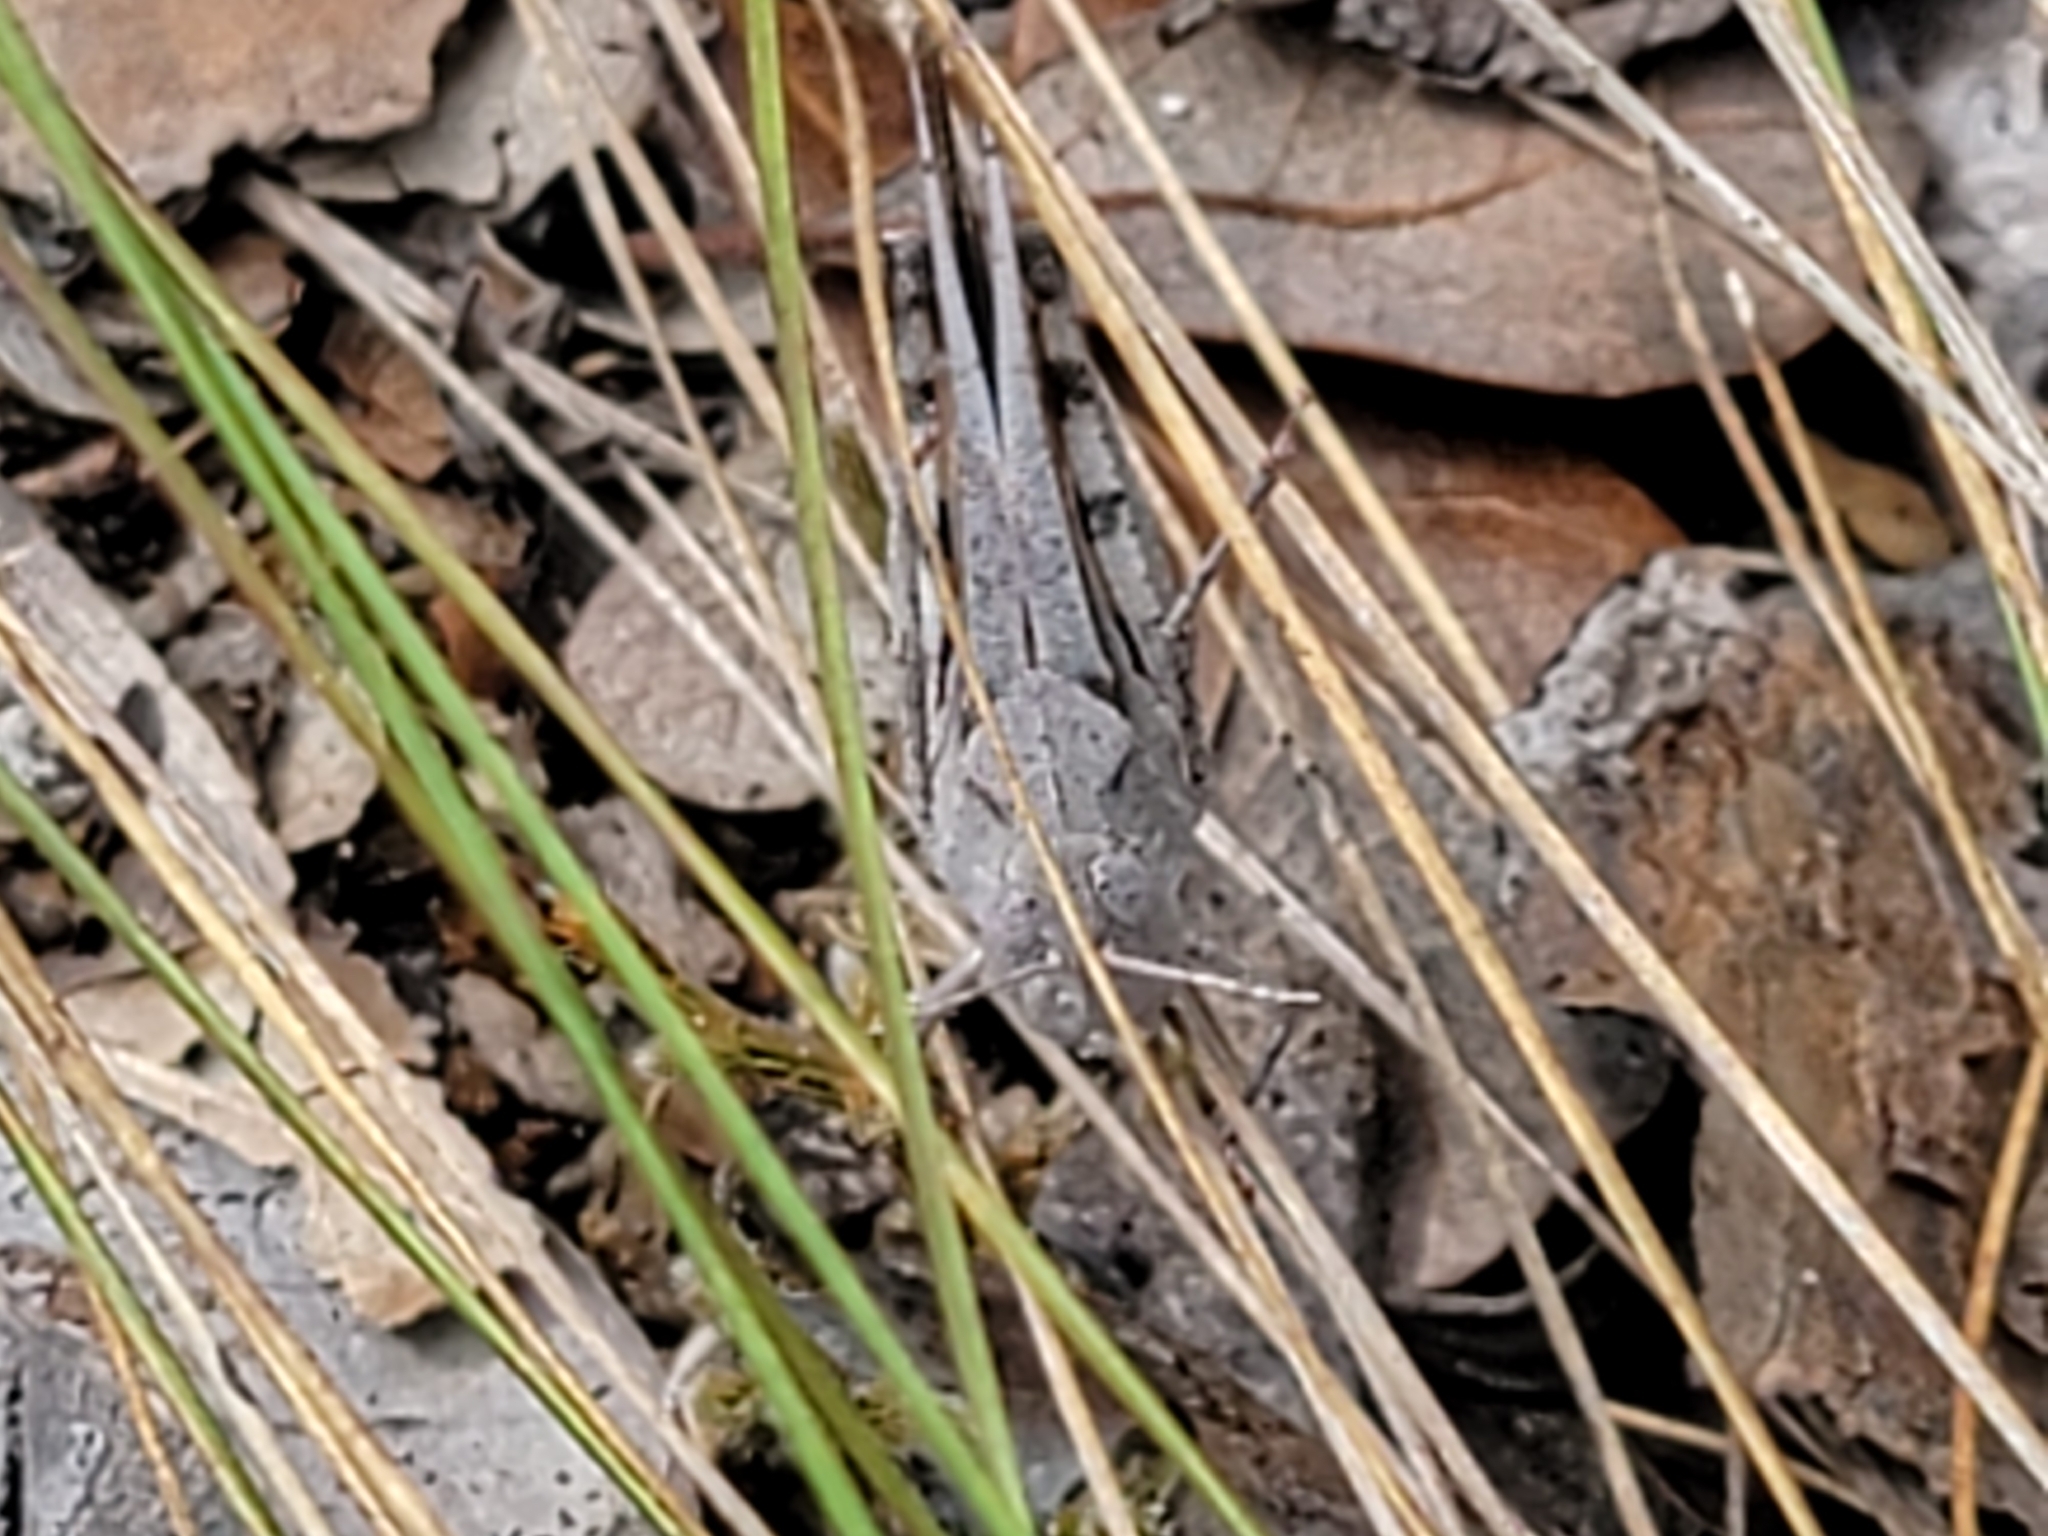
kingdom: Animalia
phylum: Arthropoda
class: Insecta
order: Orthoptera
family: Acrididae
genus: Spharagemon
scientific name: Spharagemon marmoratum
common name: Marbled grasshopper
